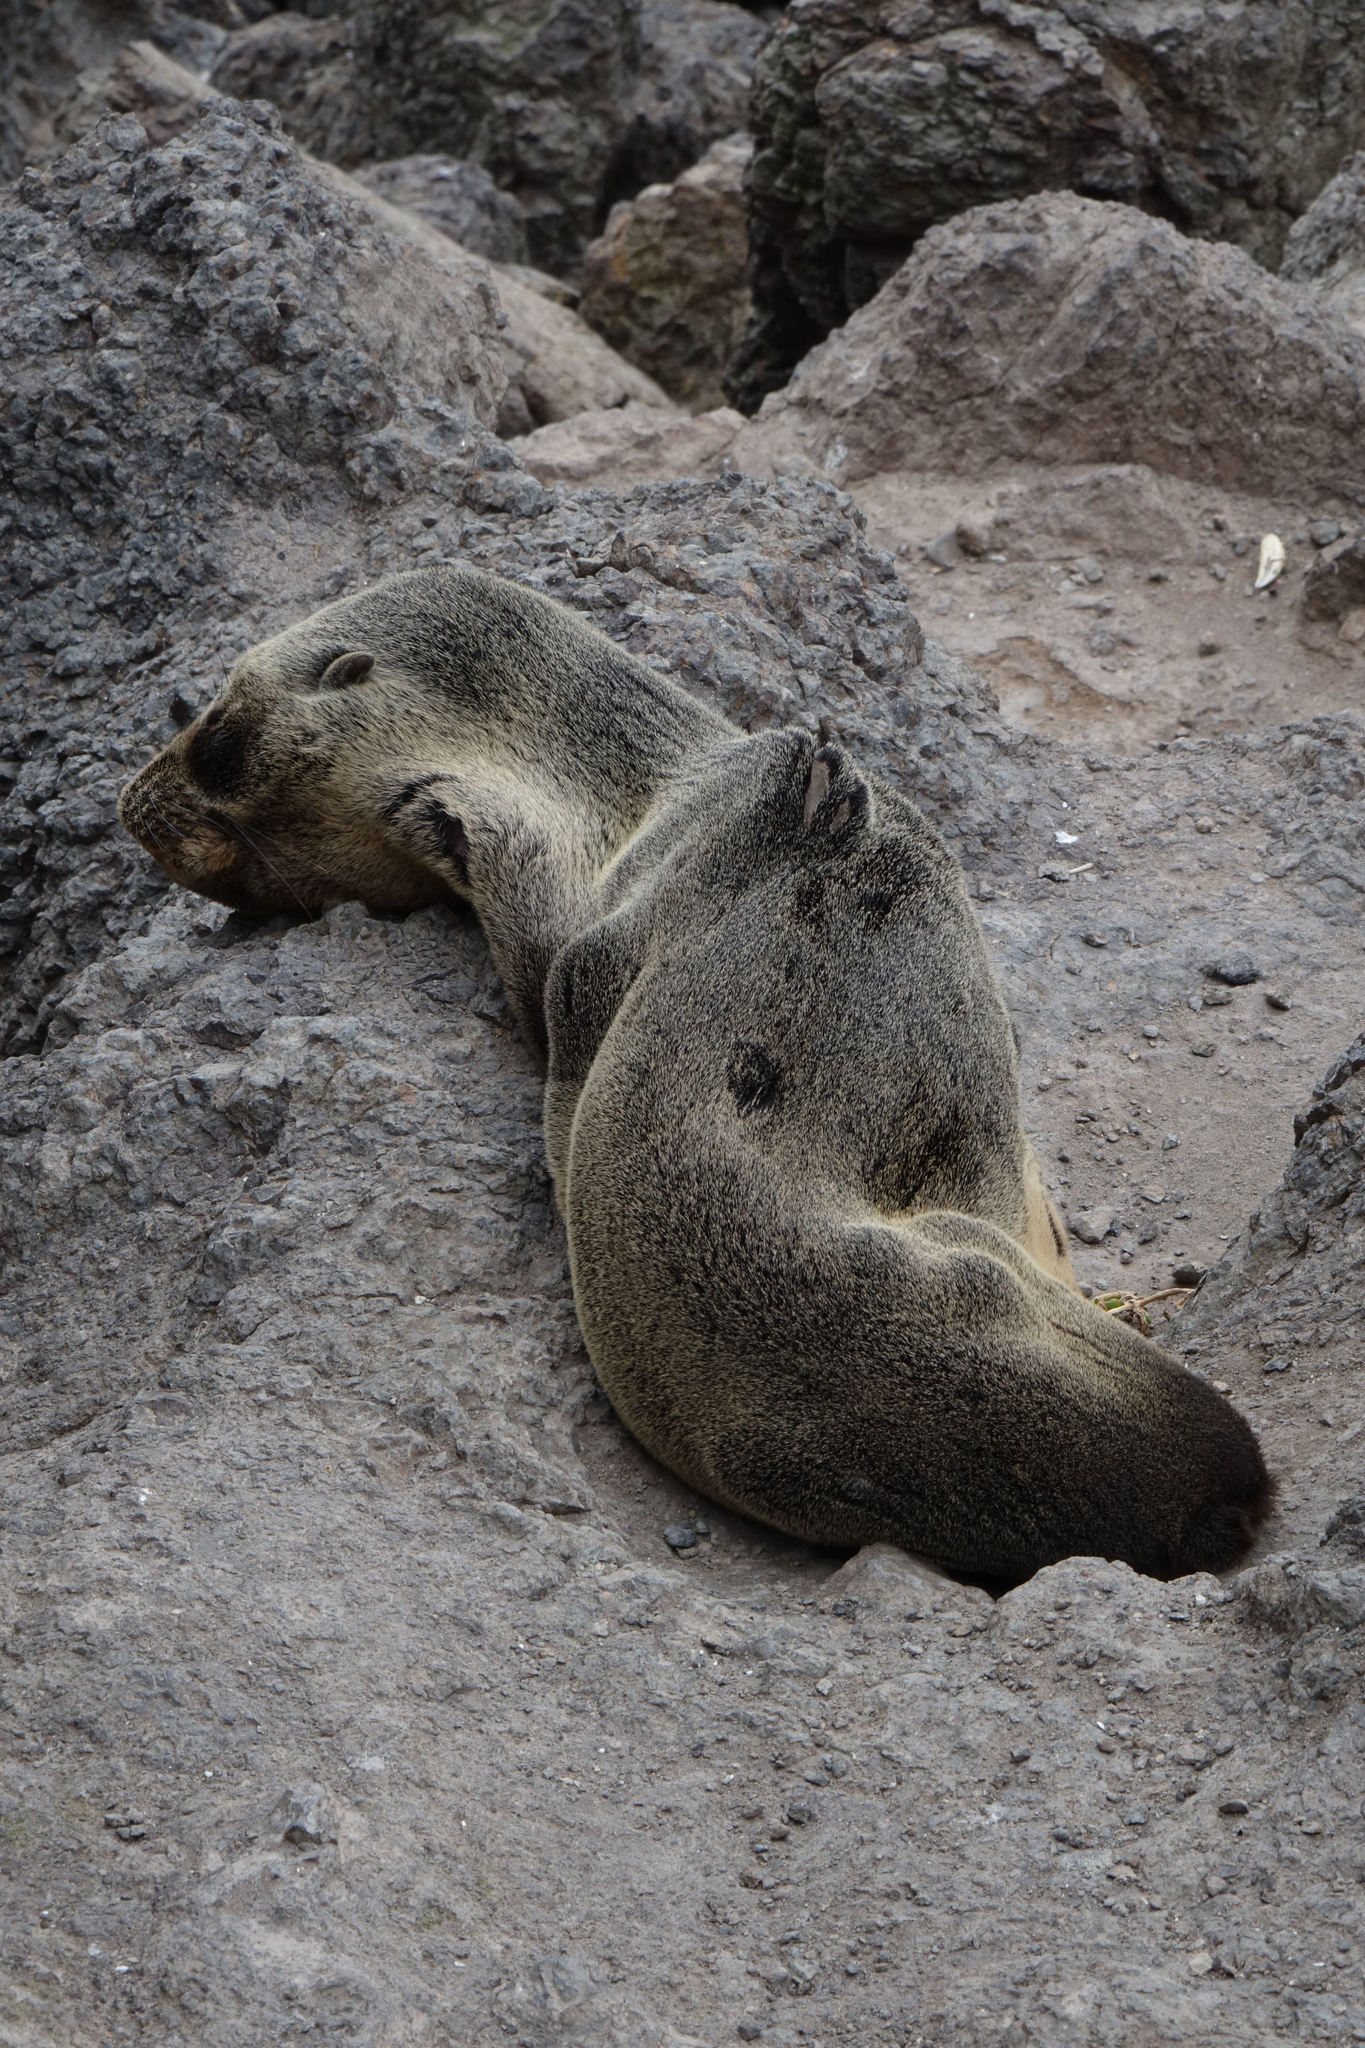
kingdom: Animalia
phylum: Chordata
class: Mammalia
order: Carnivora
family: Otariidae
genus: Arctocephalus
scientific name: Arctocephalus forsteri
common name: New zealand fur seal
